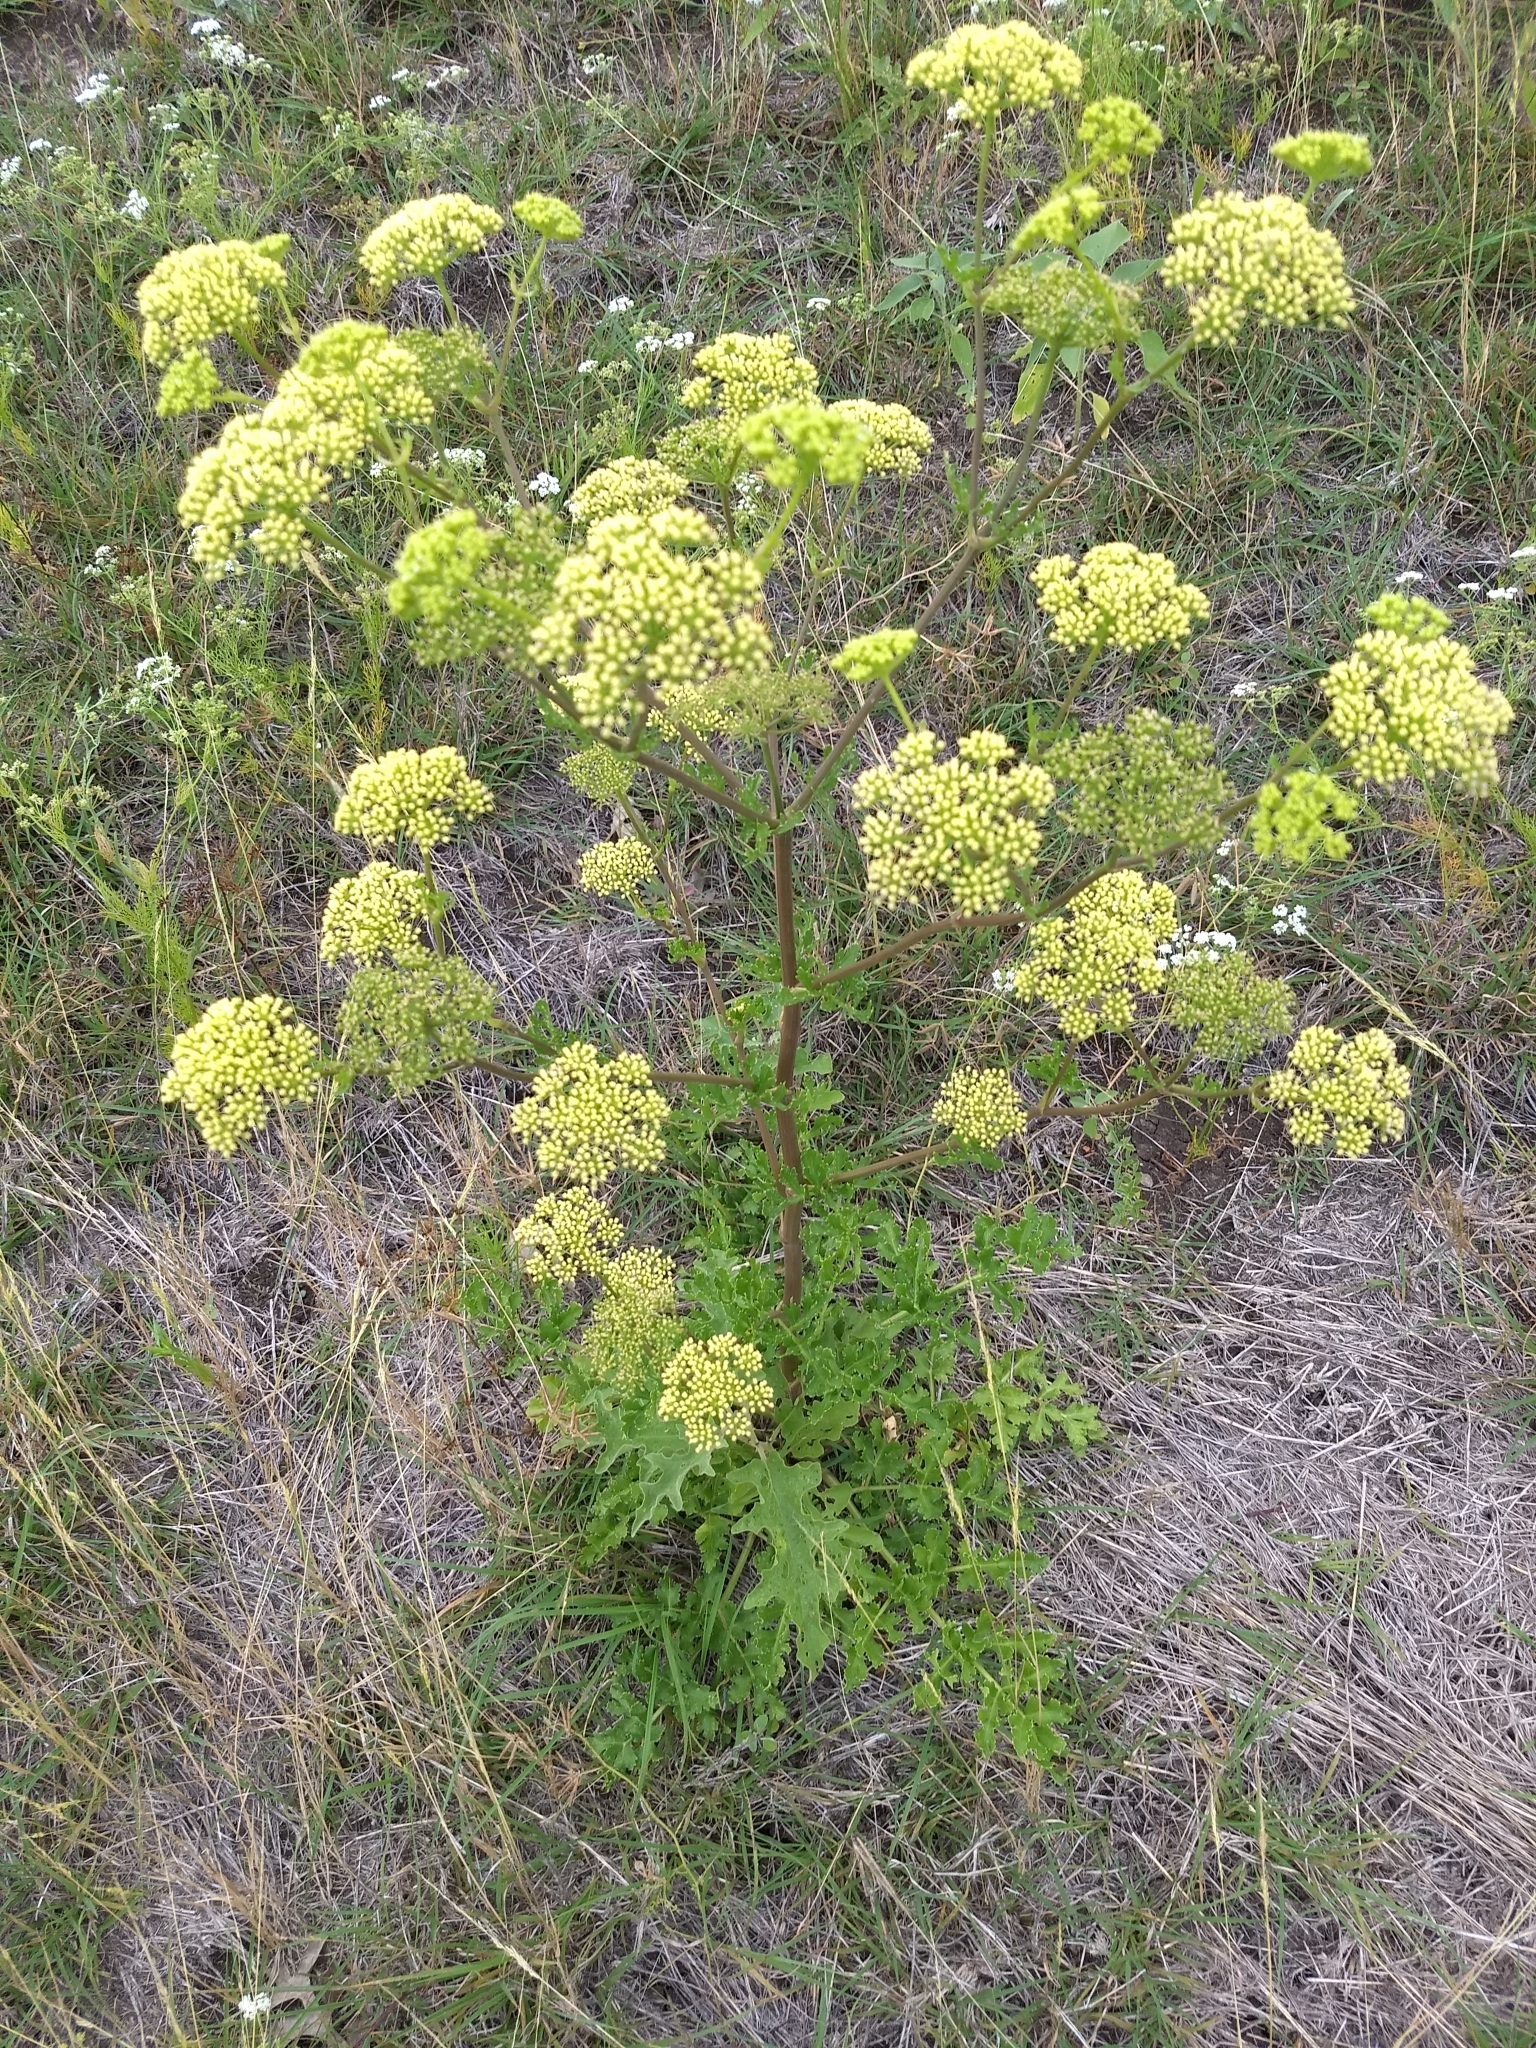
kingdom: Plantae
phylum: Tracheophyta
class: Magnoliopsida
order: Apiales
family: Apiaceae
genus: Polytaenia
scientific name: Polytaenia texana
